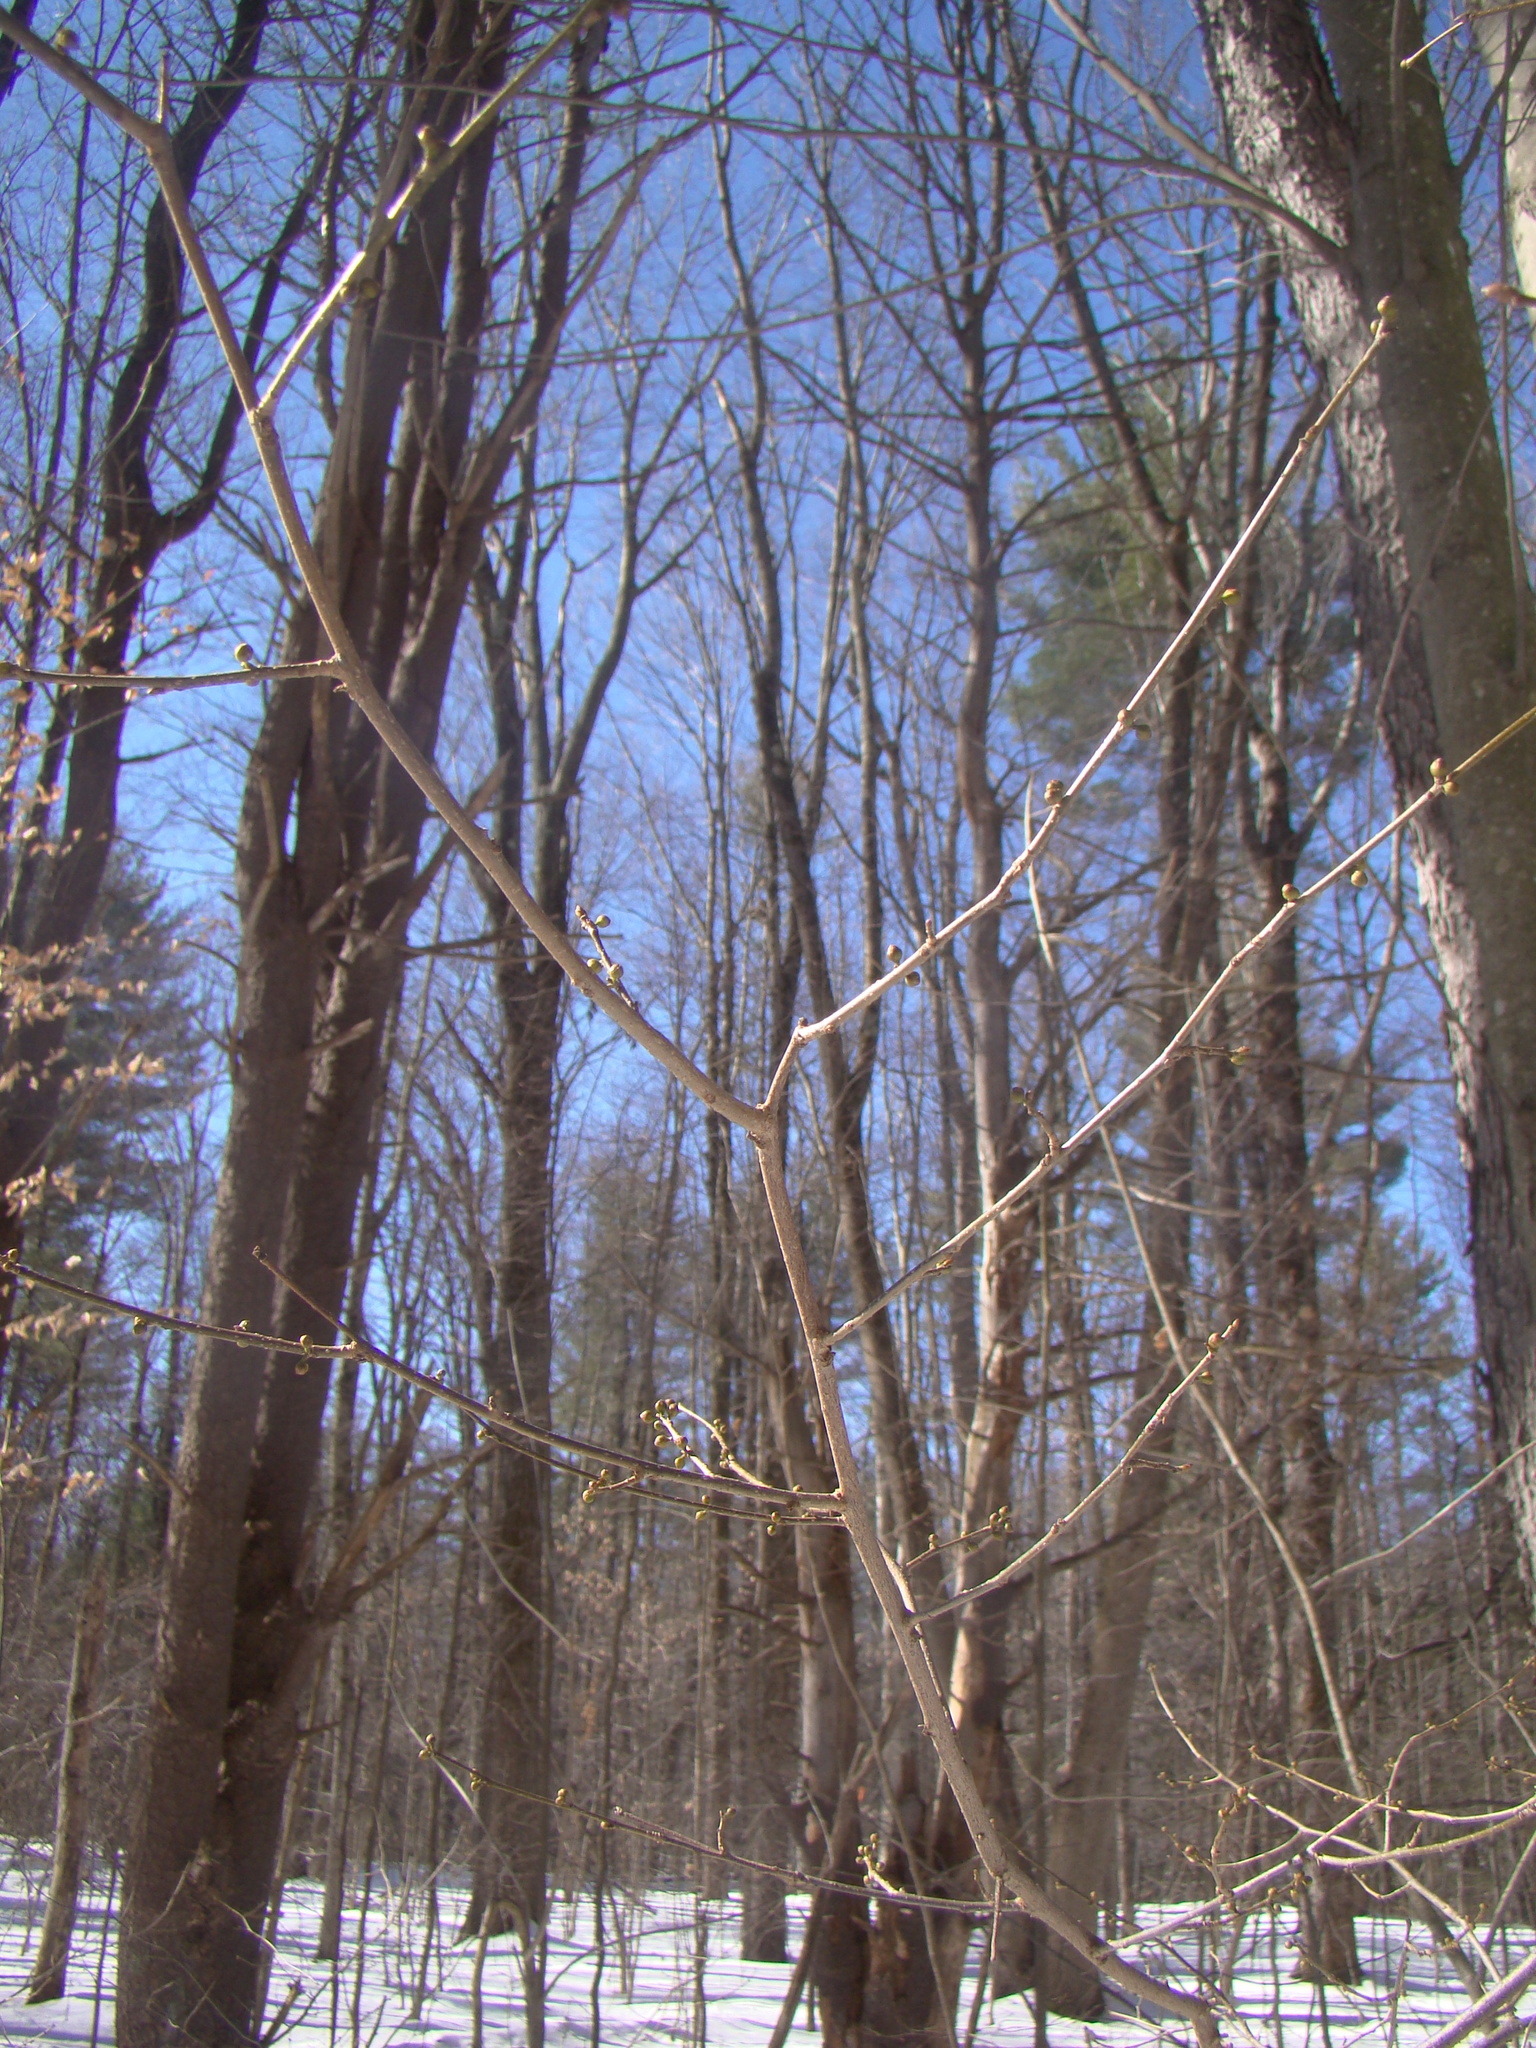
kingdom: Plantae
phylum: Tracheophyta
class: Magnoliopsida
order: Laurales
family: Lauraceae
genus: Lindera
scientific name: Lindera benzoin
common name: Spicebush
